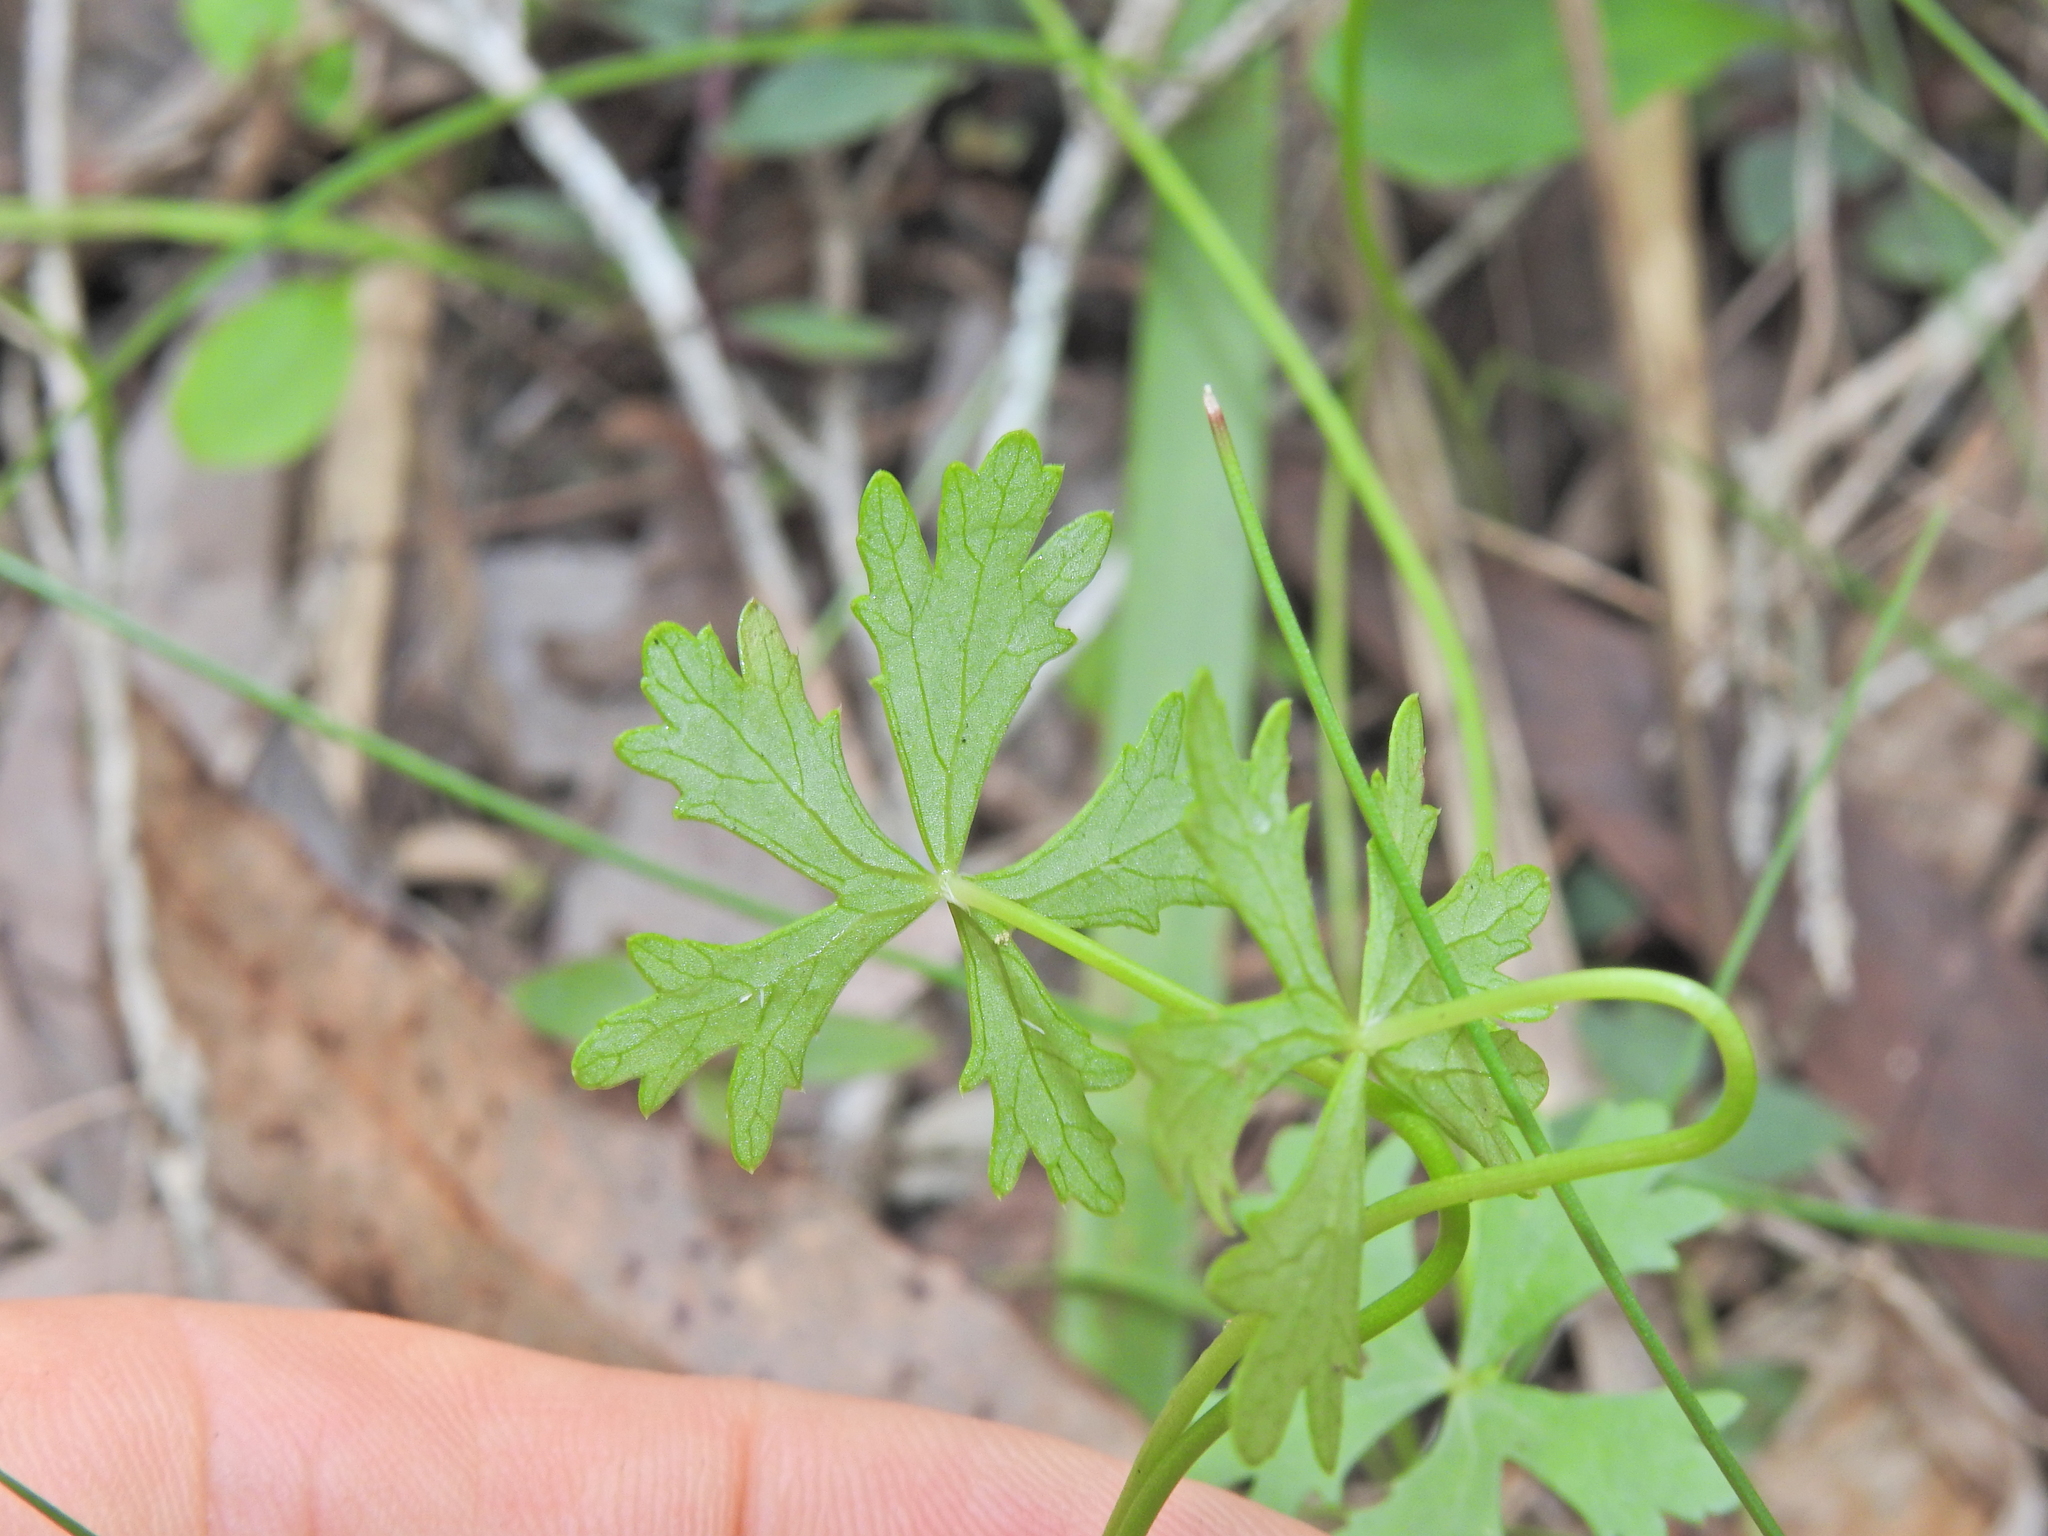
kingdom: Plantae
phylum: Tracheophyta
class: Magnoliopsida
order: Apiales
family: Araliaceae
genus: Hydrocotyle
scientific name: Hydrocotyle paludosa
